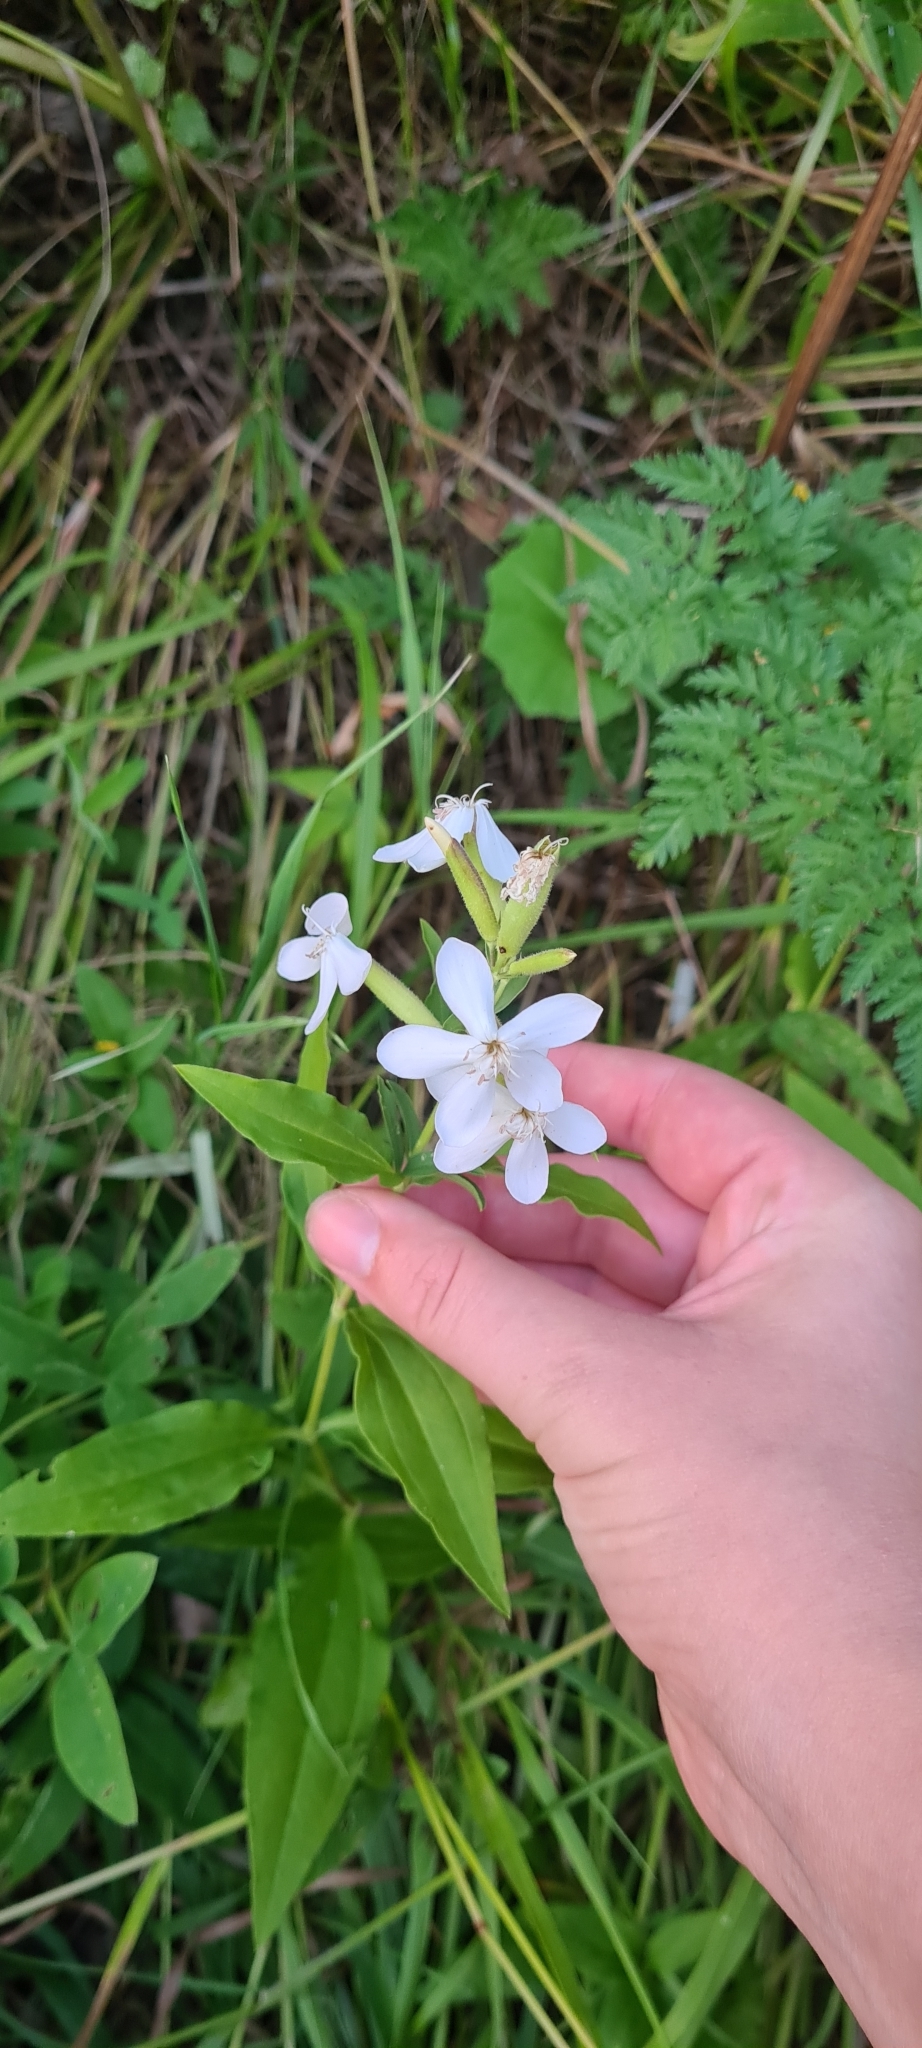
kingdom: Plantae
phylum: Tracheophyta
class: Magnoliopsida
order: Caryophyllales
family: Caryophyllaceae
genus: Saponaria
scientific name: Saponaria officinalis
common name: Soapwort
